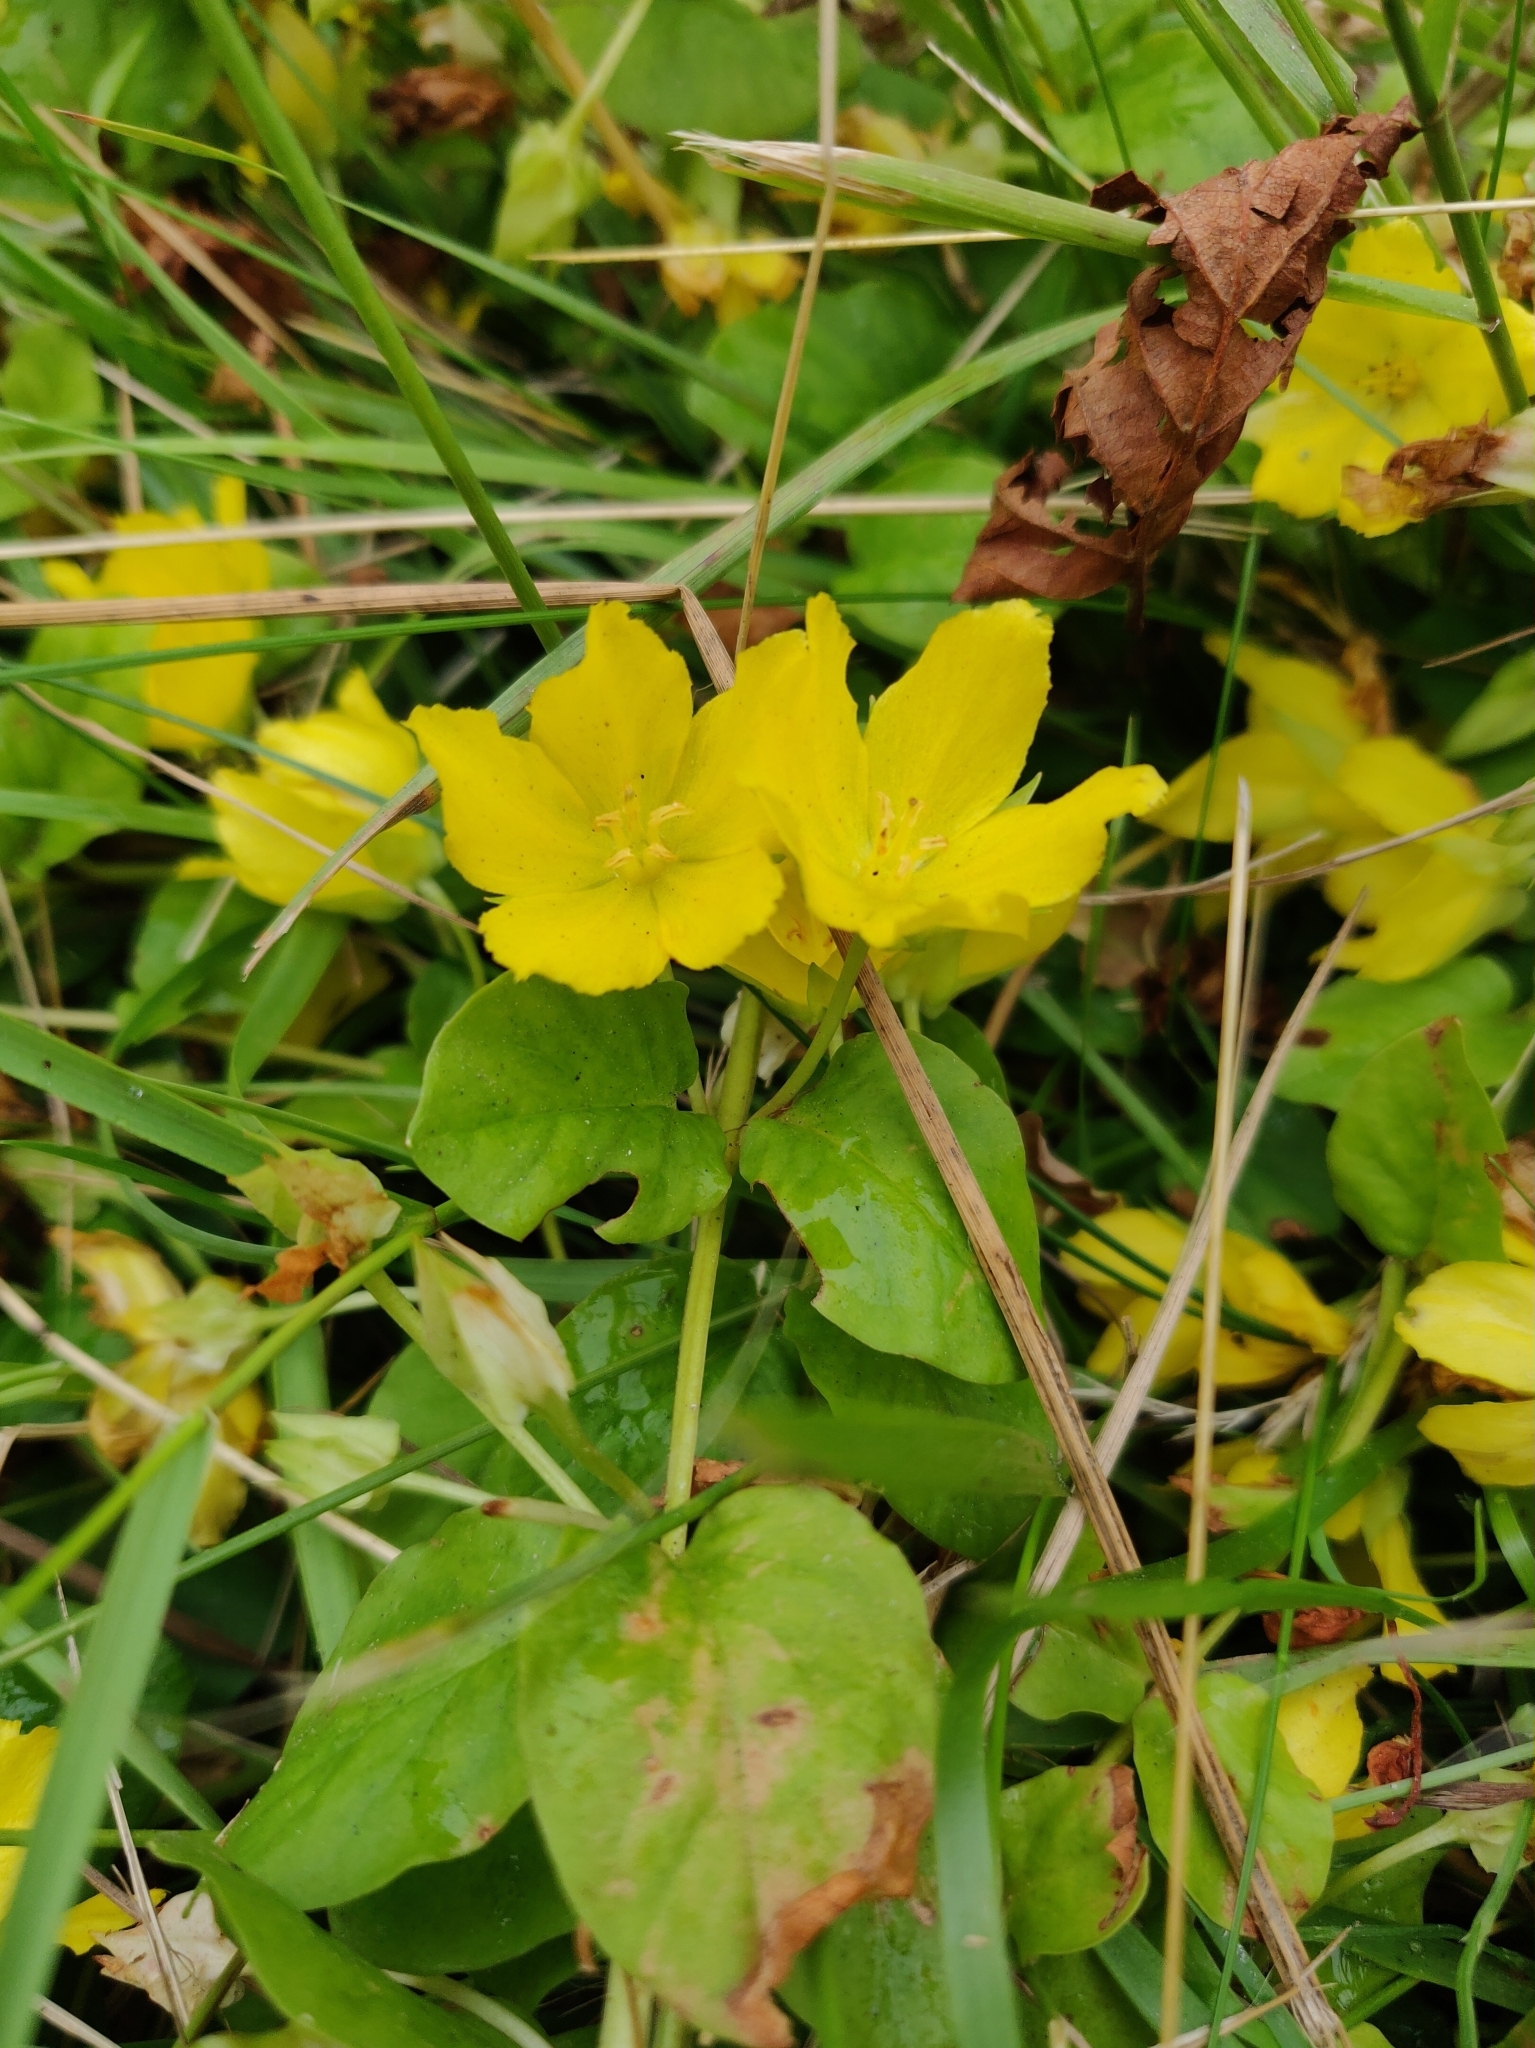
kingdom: Plantae
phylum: Tracheophyta
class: Magnoliopsida
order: Ericales
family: Primulaceae
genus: Lysimachia
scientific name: Lysimachia nummularia
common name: Moneywort
